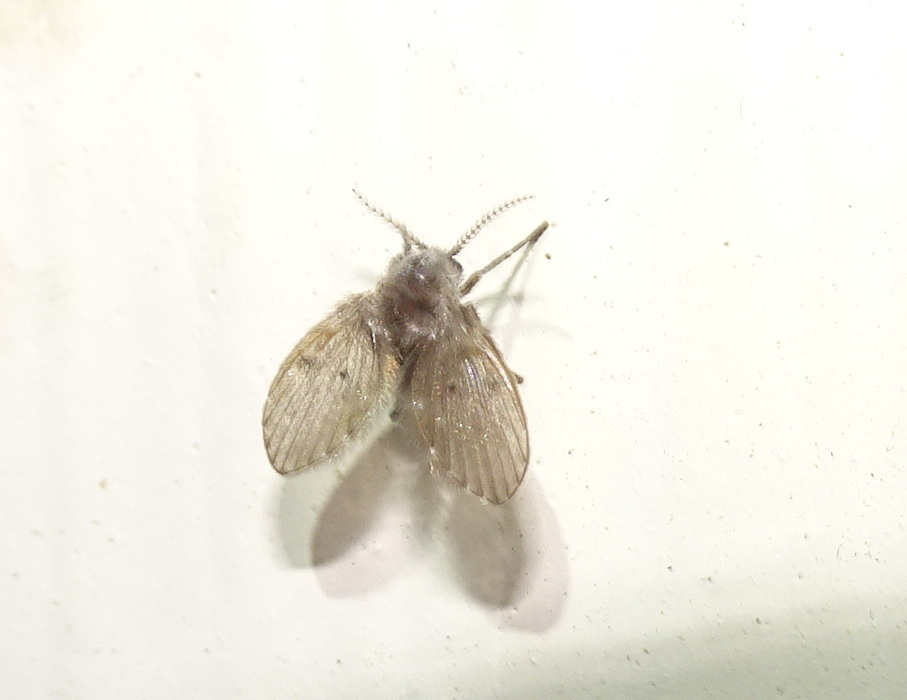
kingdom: Animalia
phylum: Arthropoda
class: Insecta
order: Diptera
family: Psychodidae
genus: Clogmia
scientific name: Clogmia albipunctatus
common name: White-spotted moth fly
